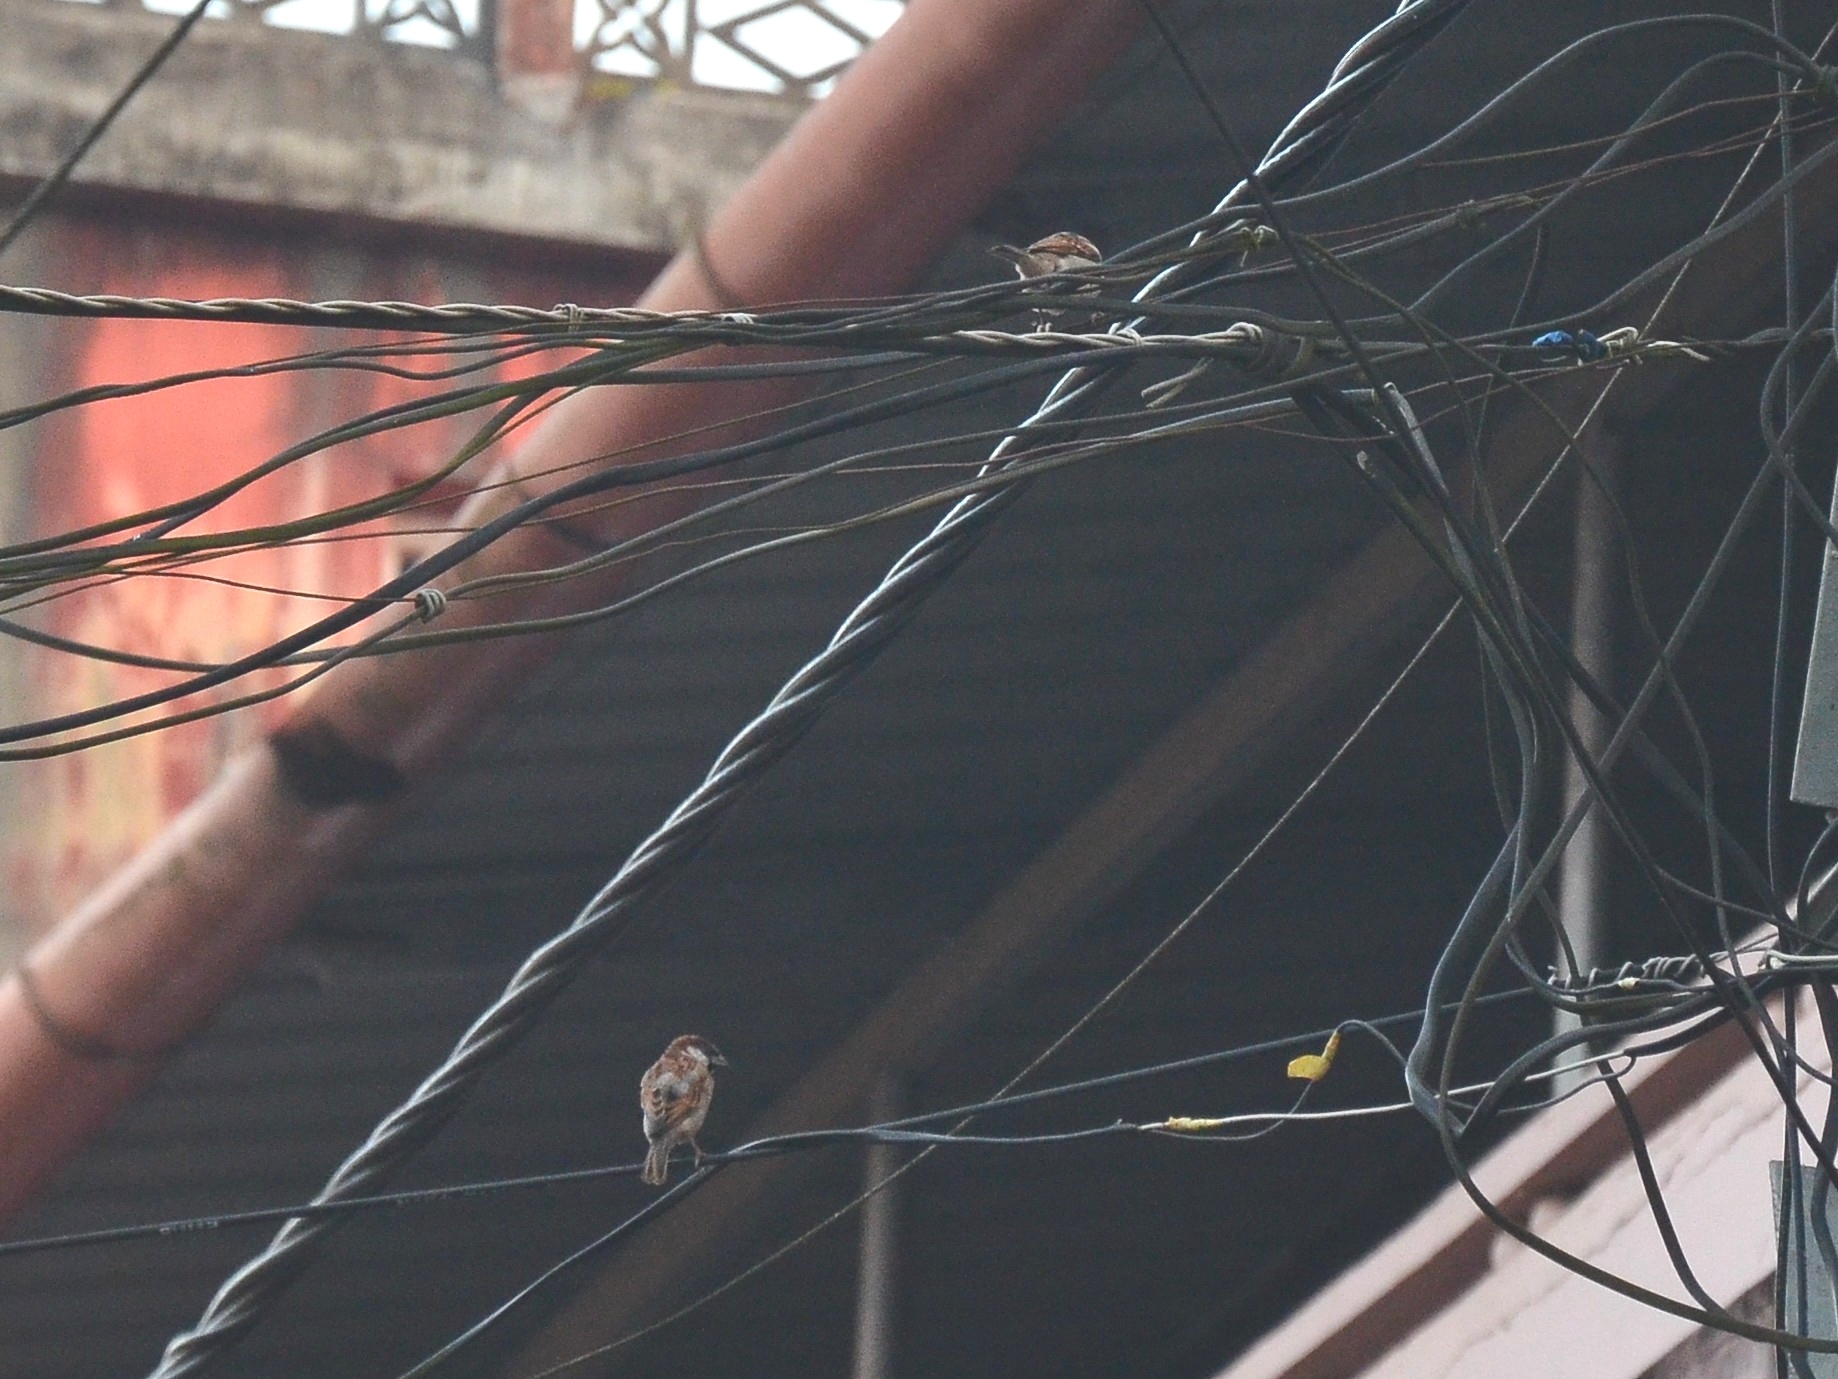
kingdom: Animalia
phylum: Chordata
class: Aves
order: Passeriformes
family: Passeridae
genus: Passer
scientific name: Passer domesticus
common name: House sparrow
